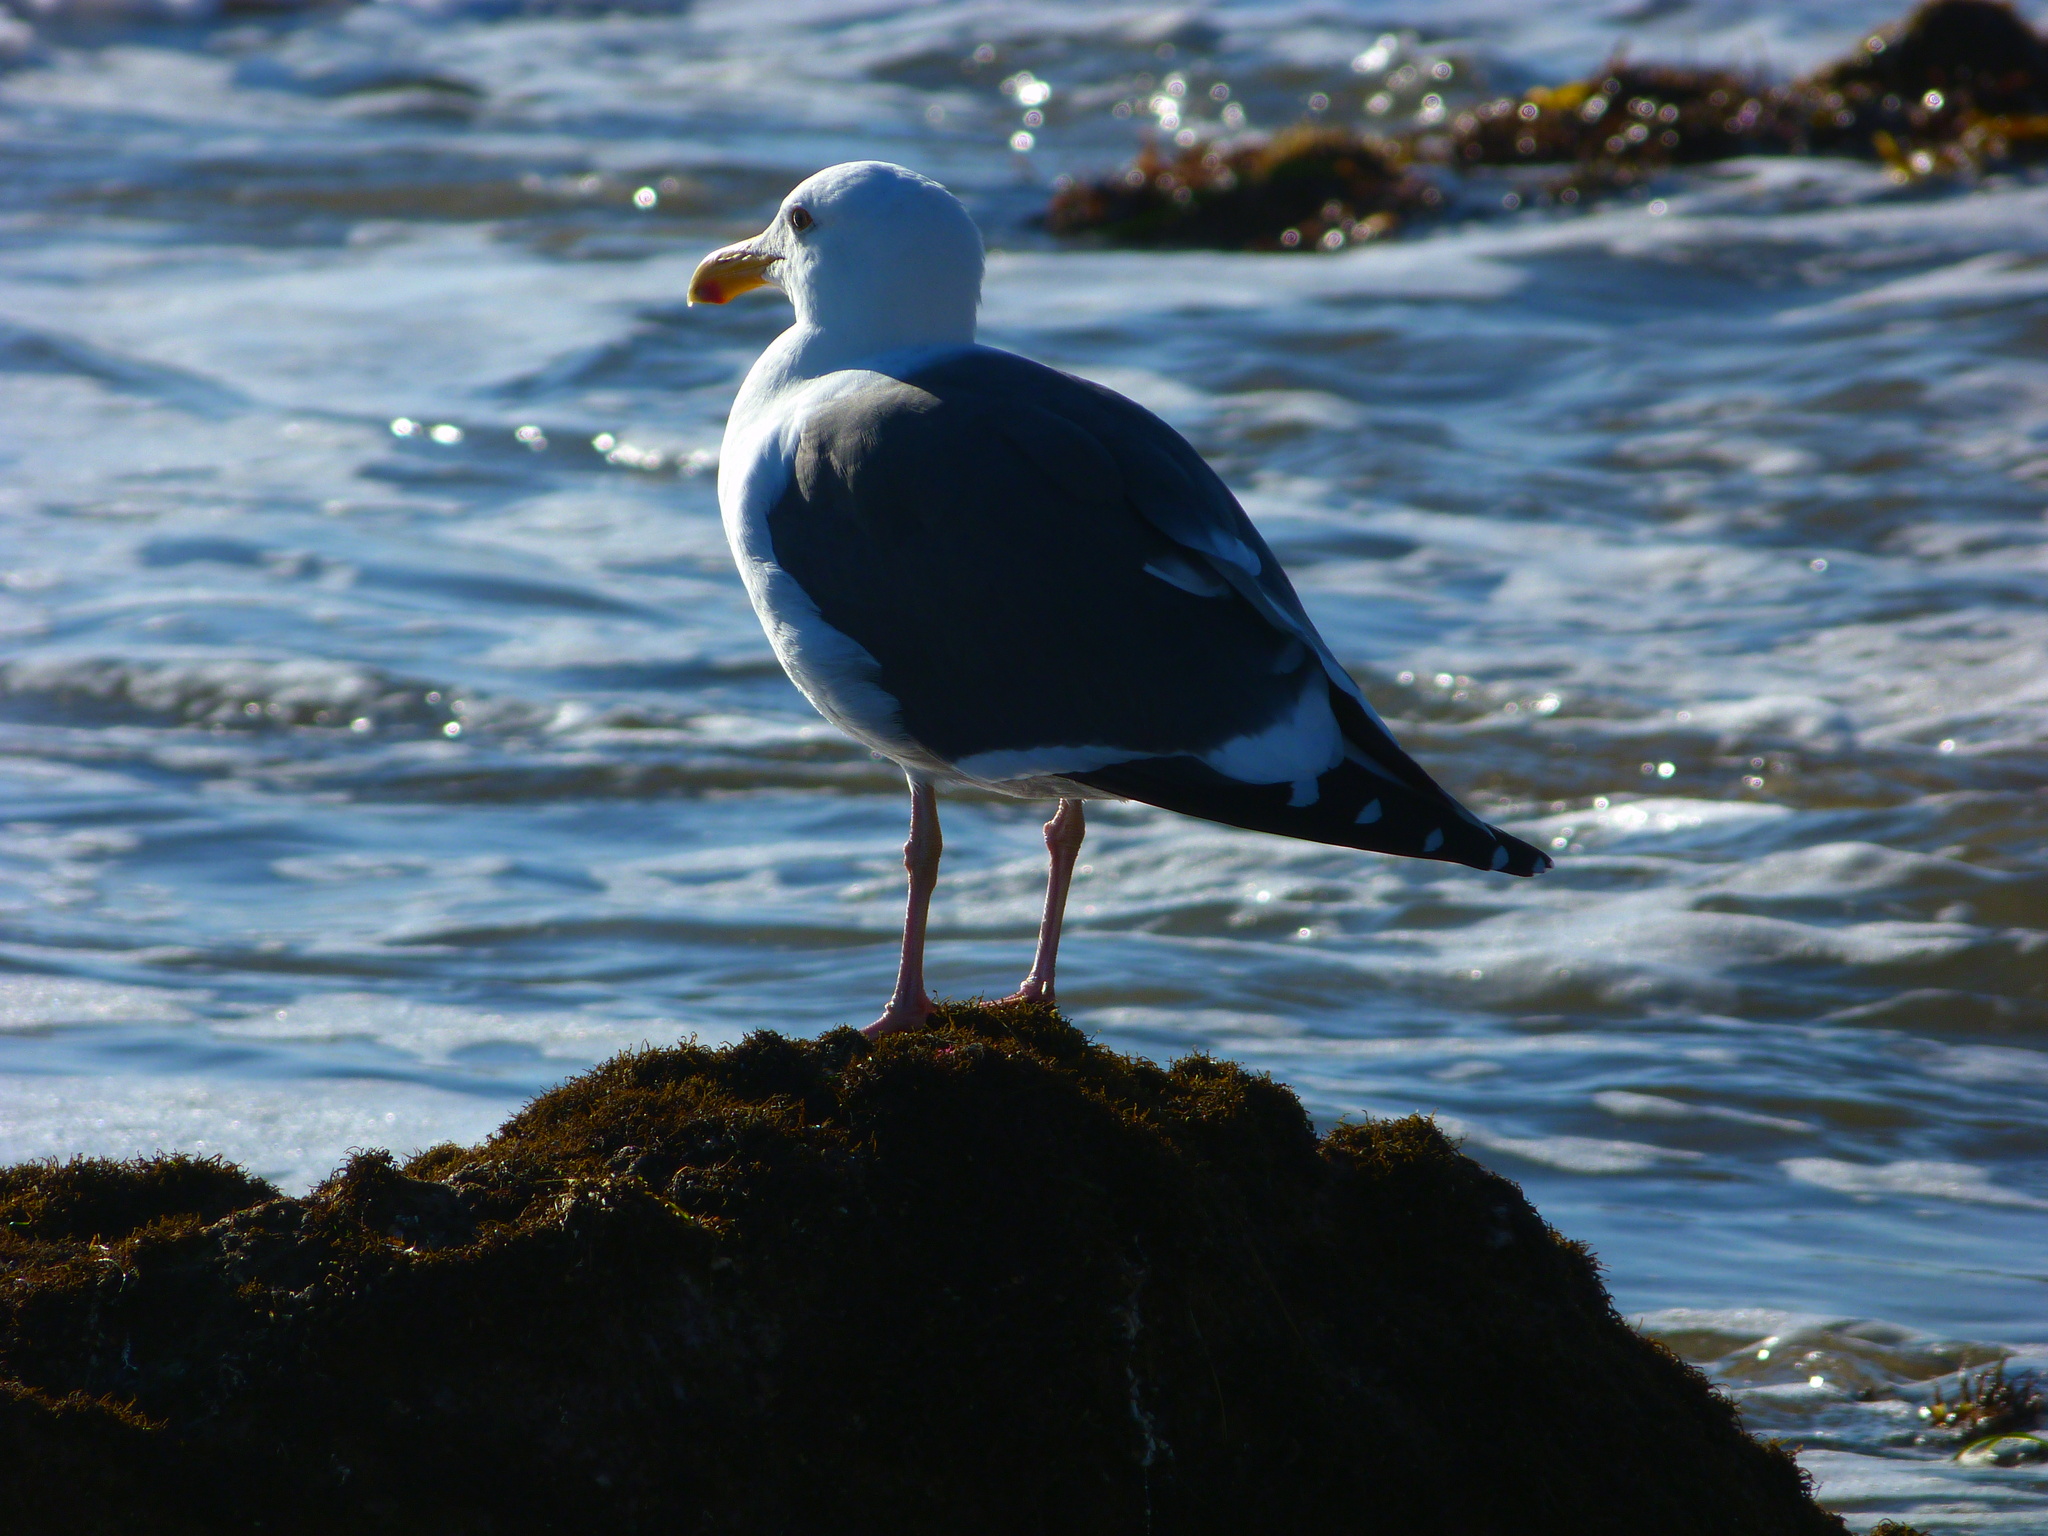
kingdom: Animalia
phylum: Chordata
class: Aves
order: Charadriiformes
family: Laridae
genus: Larus
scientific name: Larus occidentalis
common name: Western gull
